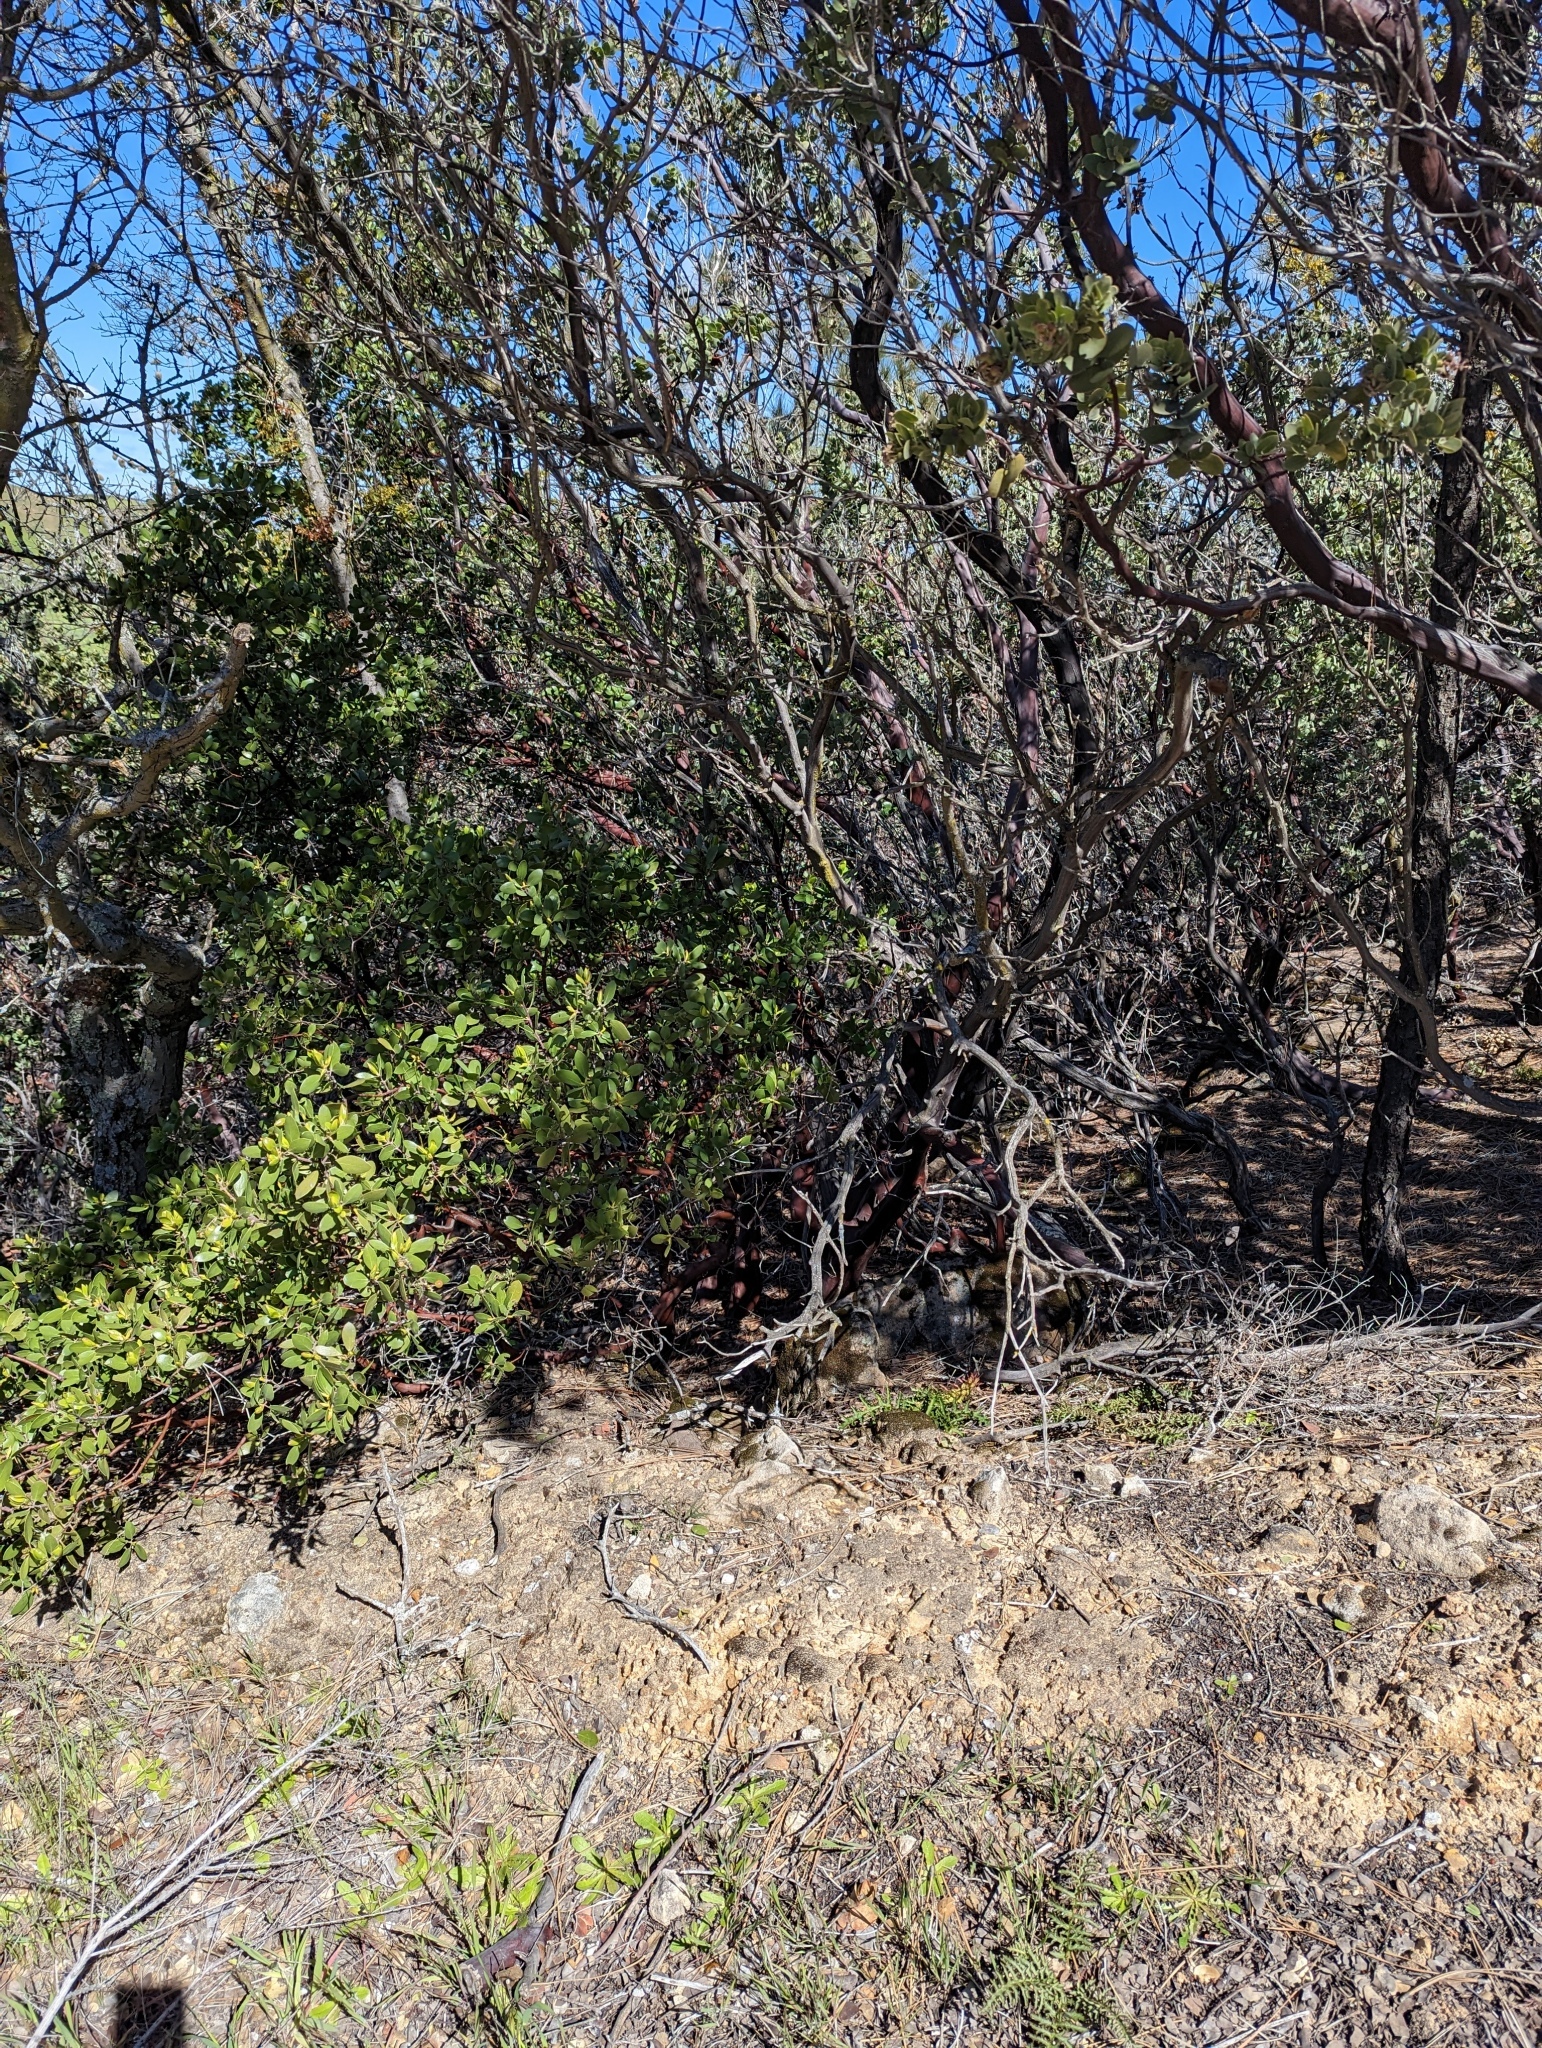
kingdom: Plantae
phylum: Tracheophyta
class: Magnoliopsida
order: Ericales
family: Ericaceae
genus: Arctostaphylos
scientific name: Arctostaphylos manzanita
